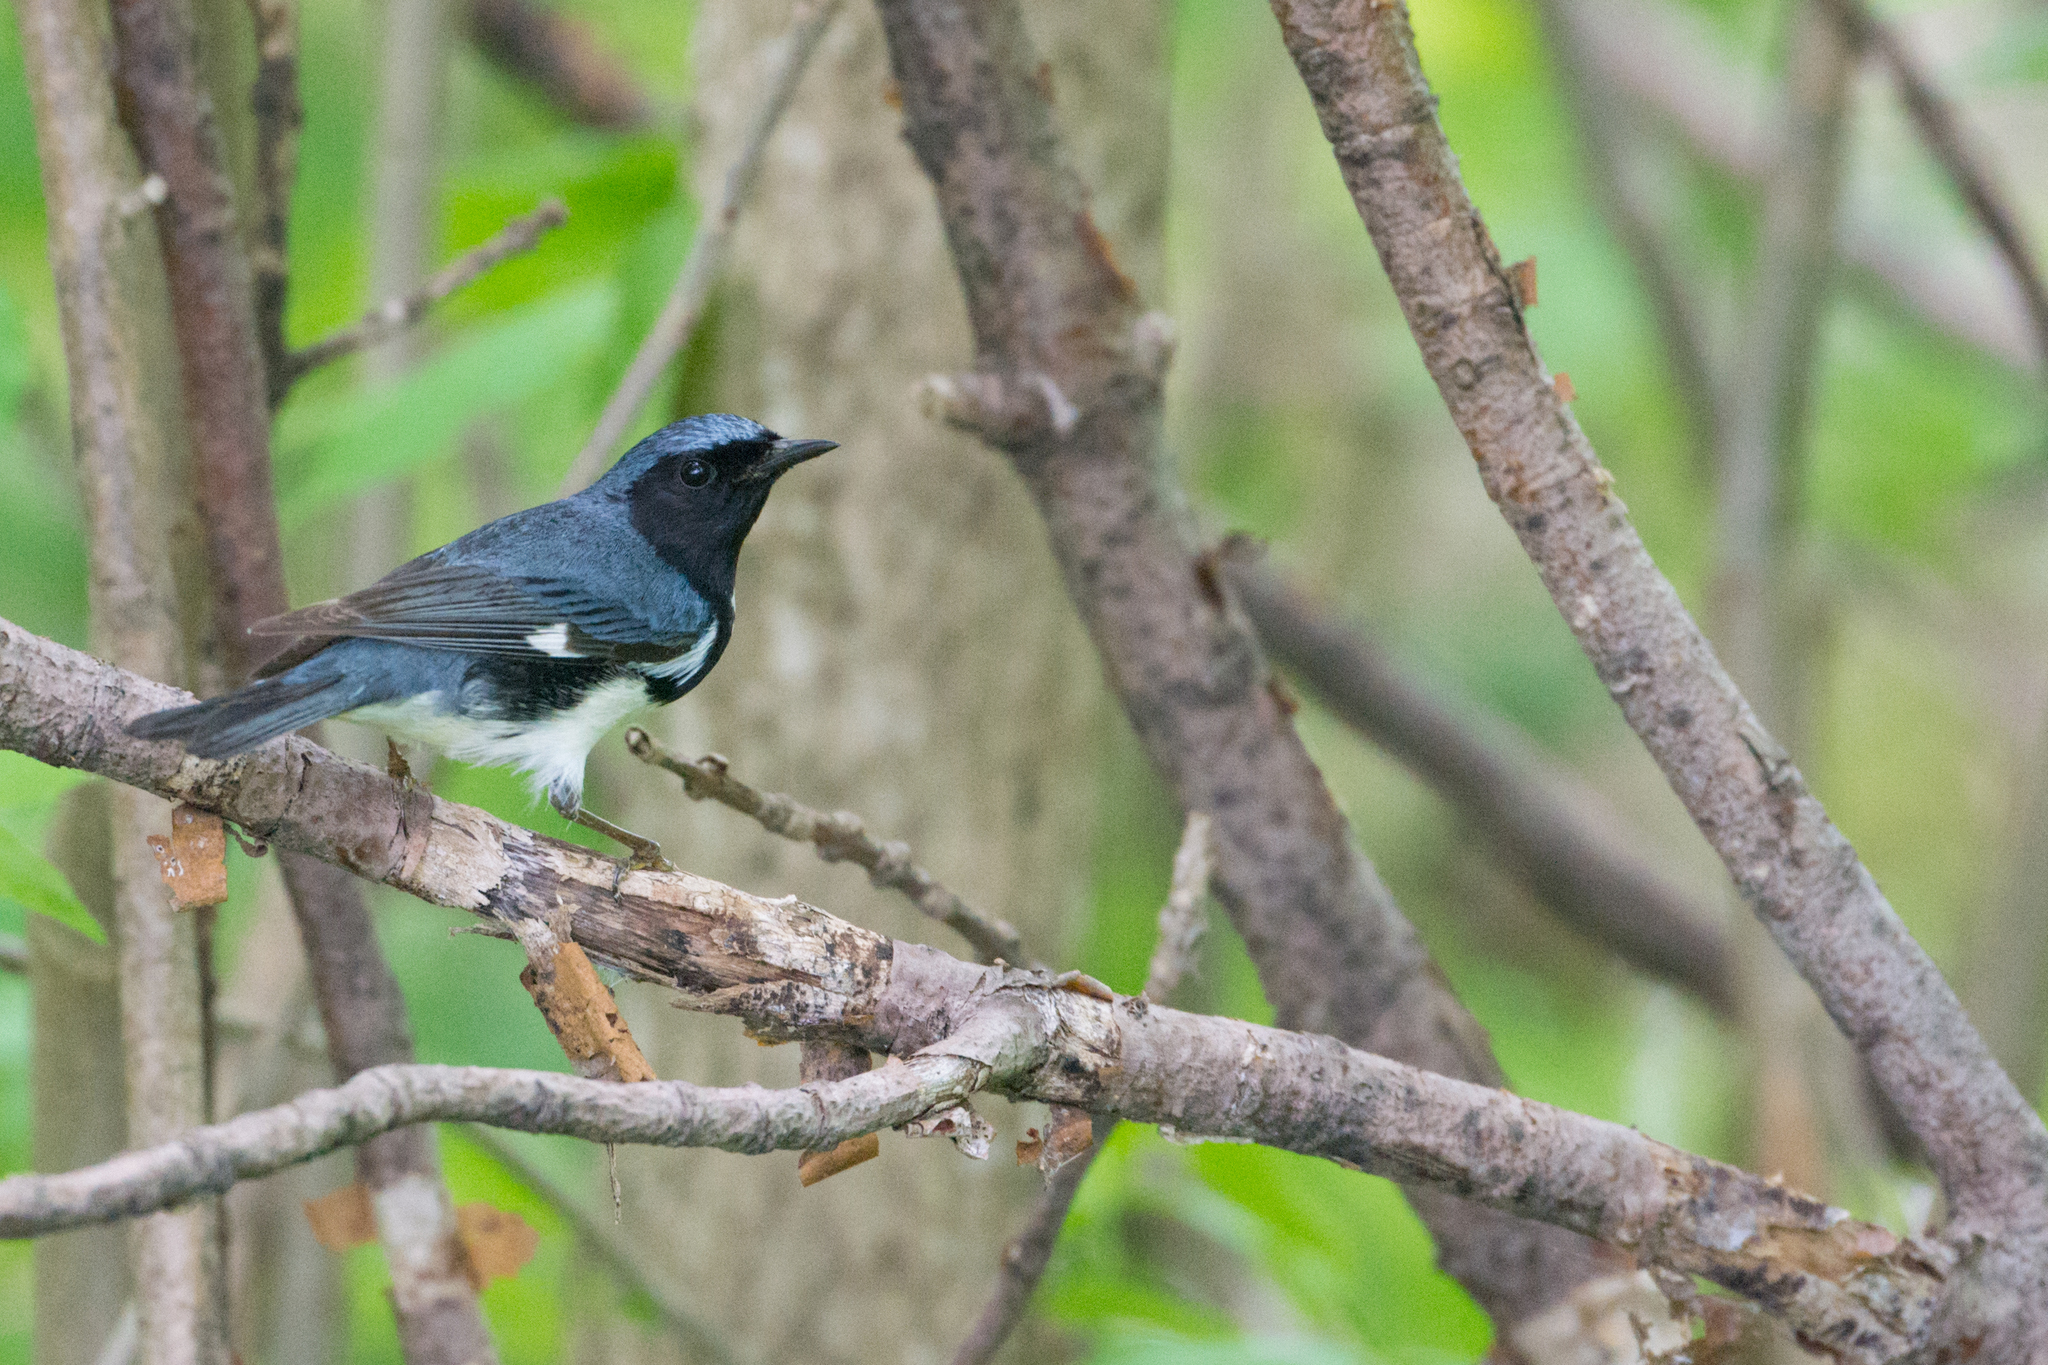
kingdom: Animalia
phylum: Chordata
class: Aves
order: Passeriformes
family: Parulidae
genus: Setophaga
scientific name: Setophaga caerulescens
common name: Black-throated blue warbler
